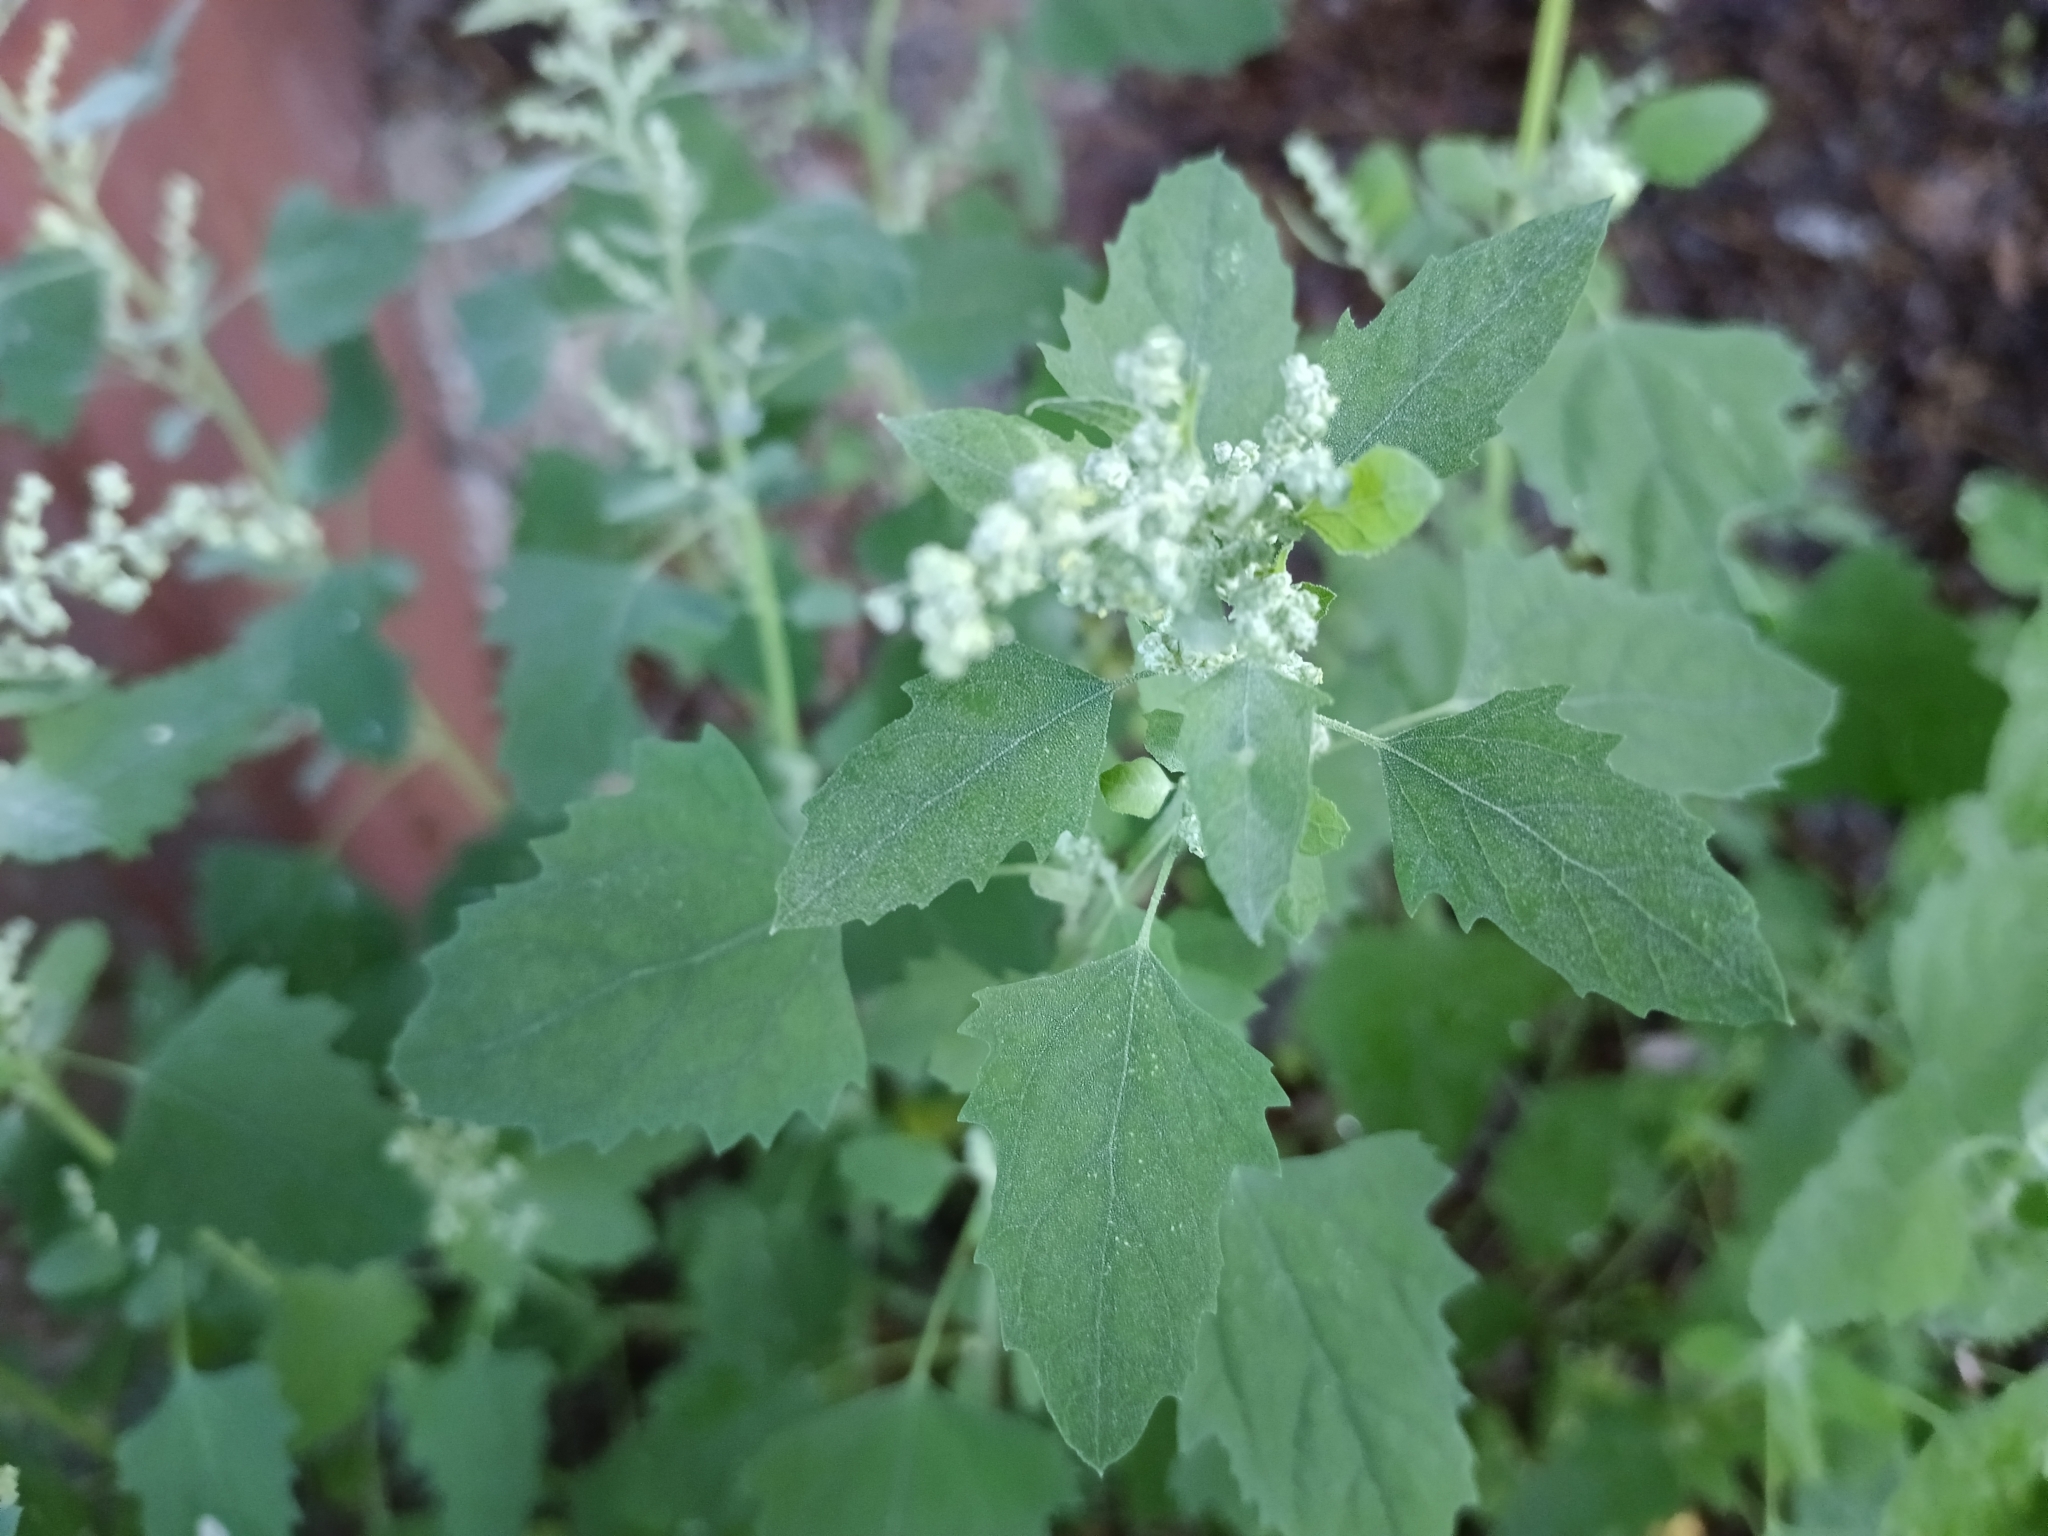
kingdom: Plantae
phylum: Tracheophyta
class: Magnoliopsida
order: Caryophyllales
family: Amaranthaceae
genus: Chenopodium
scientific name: Chenopodium album
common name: Fat-hen
